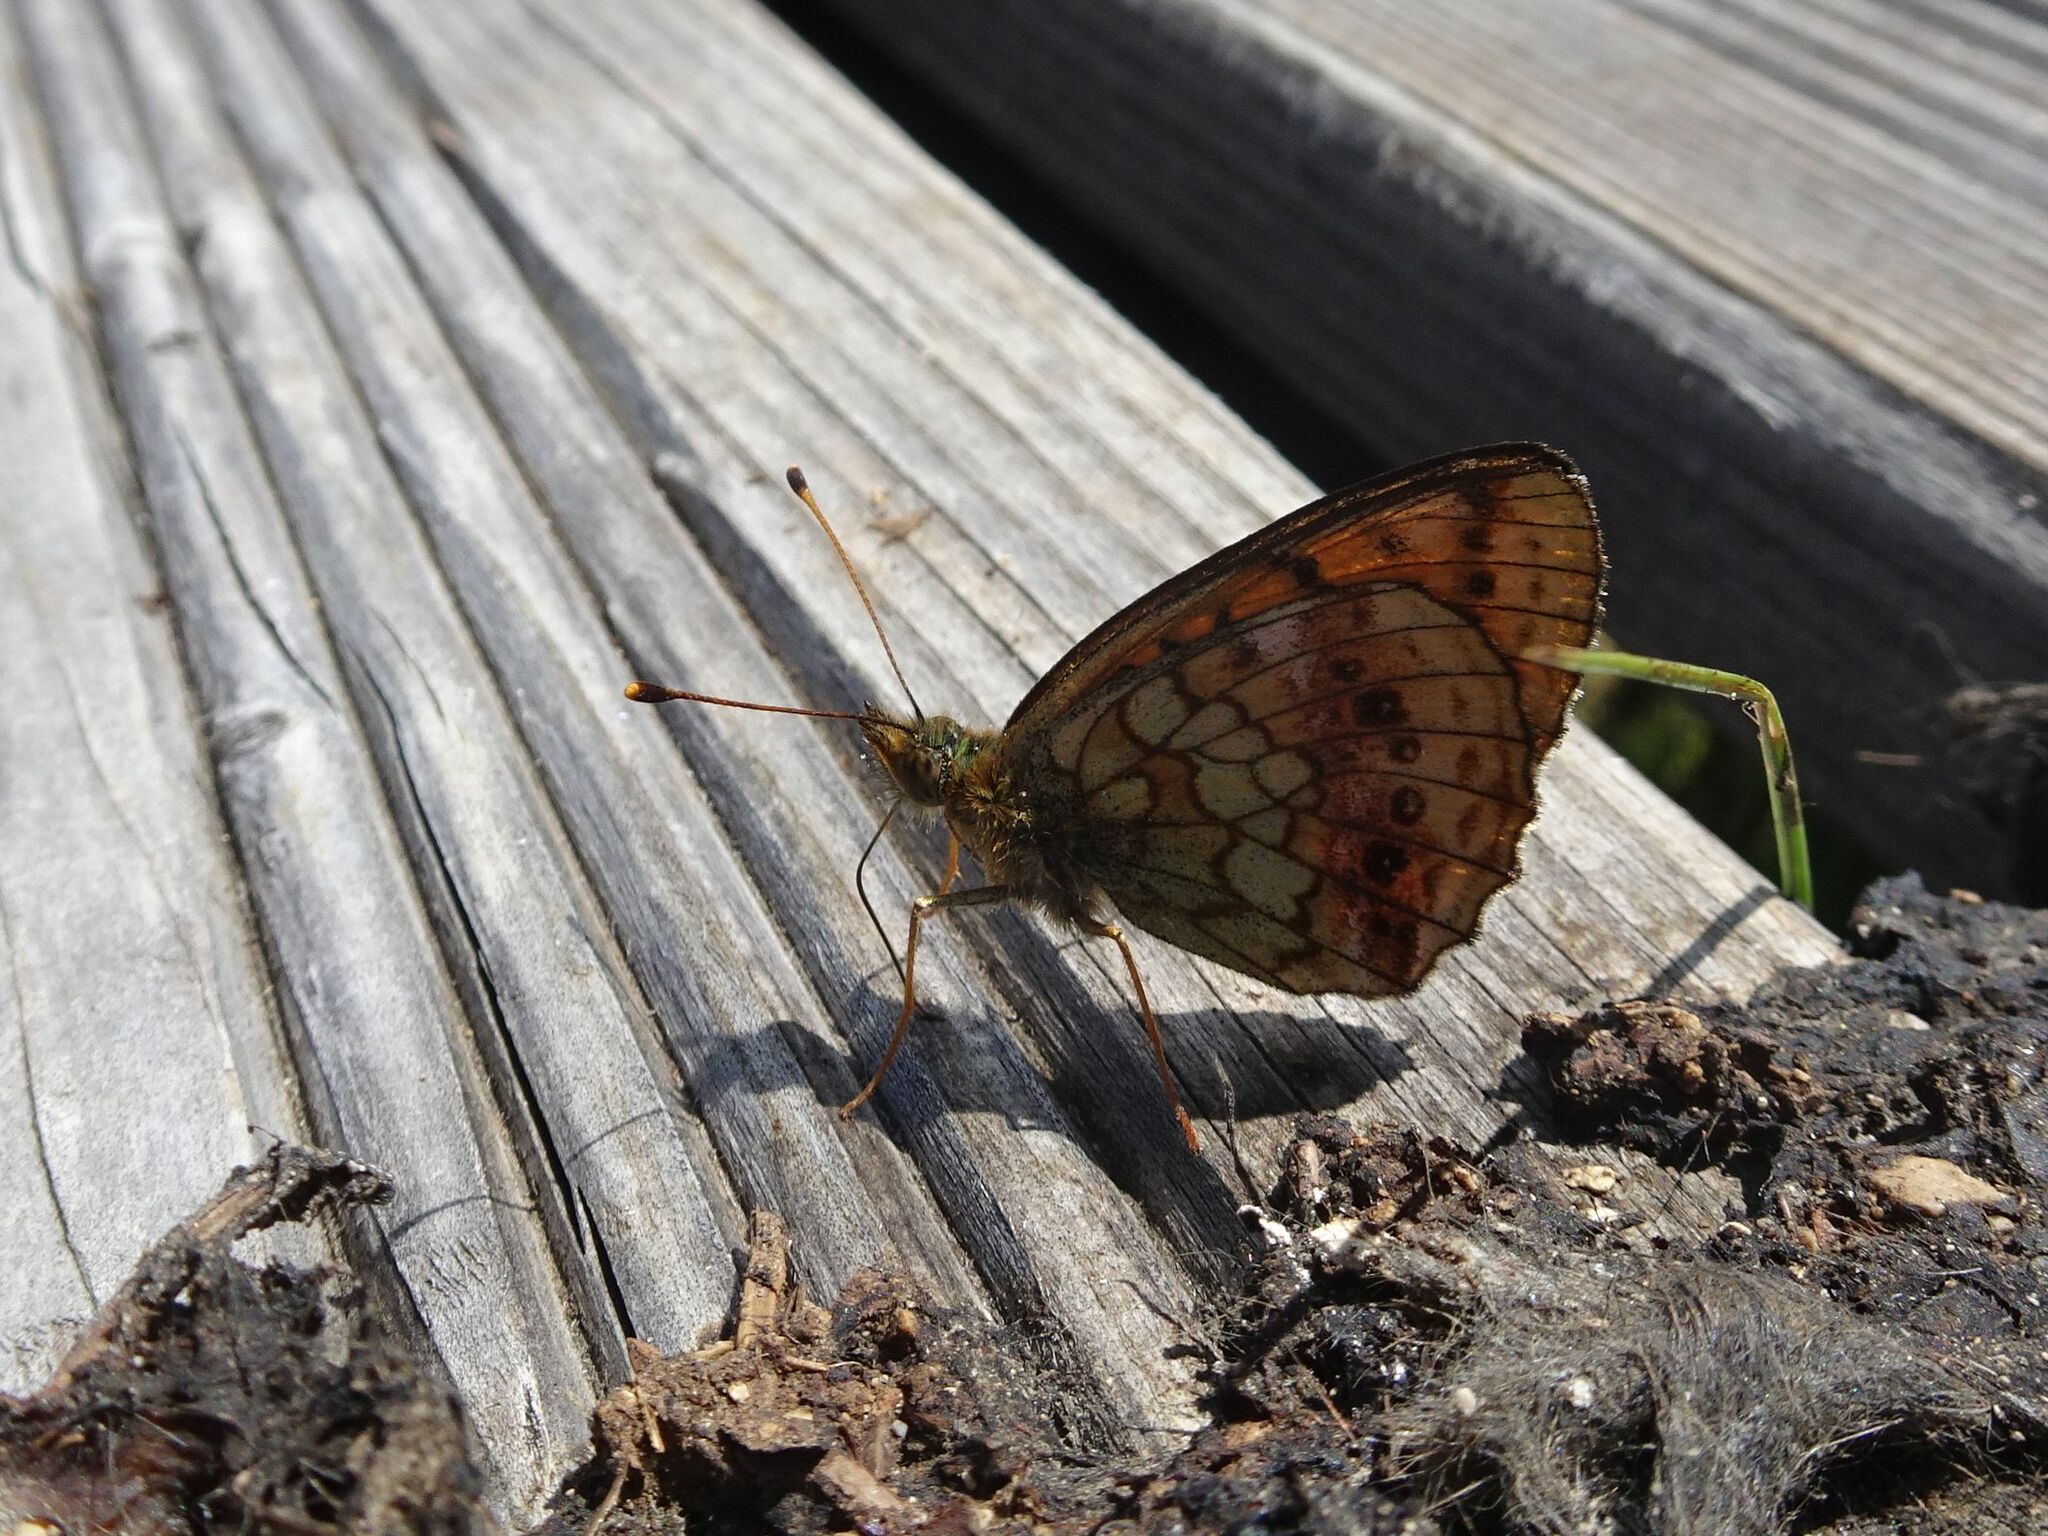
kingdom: Animalia
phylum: Arthropoda
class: Insecta
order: Lepidoptera
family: Nymphalidae
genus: Brenthis
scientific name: Brenthis ino
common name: Lesser marbled fritillary
